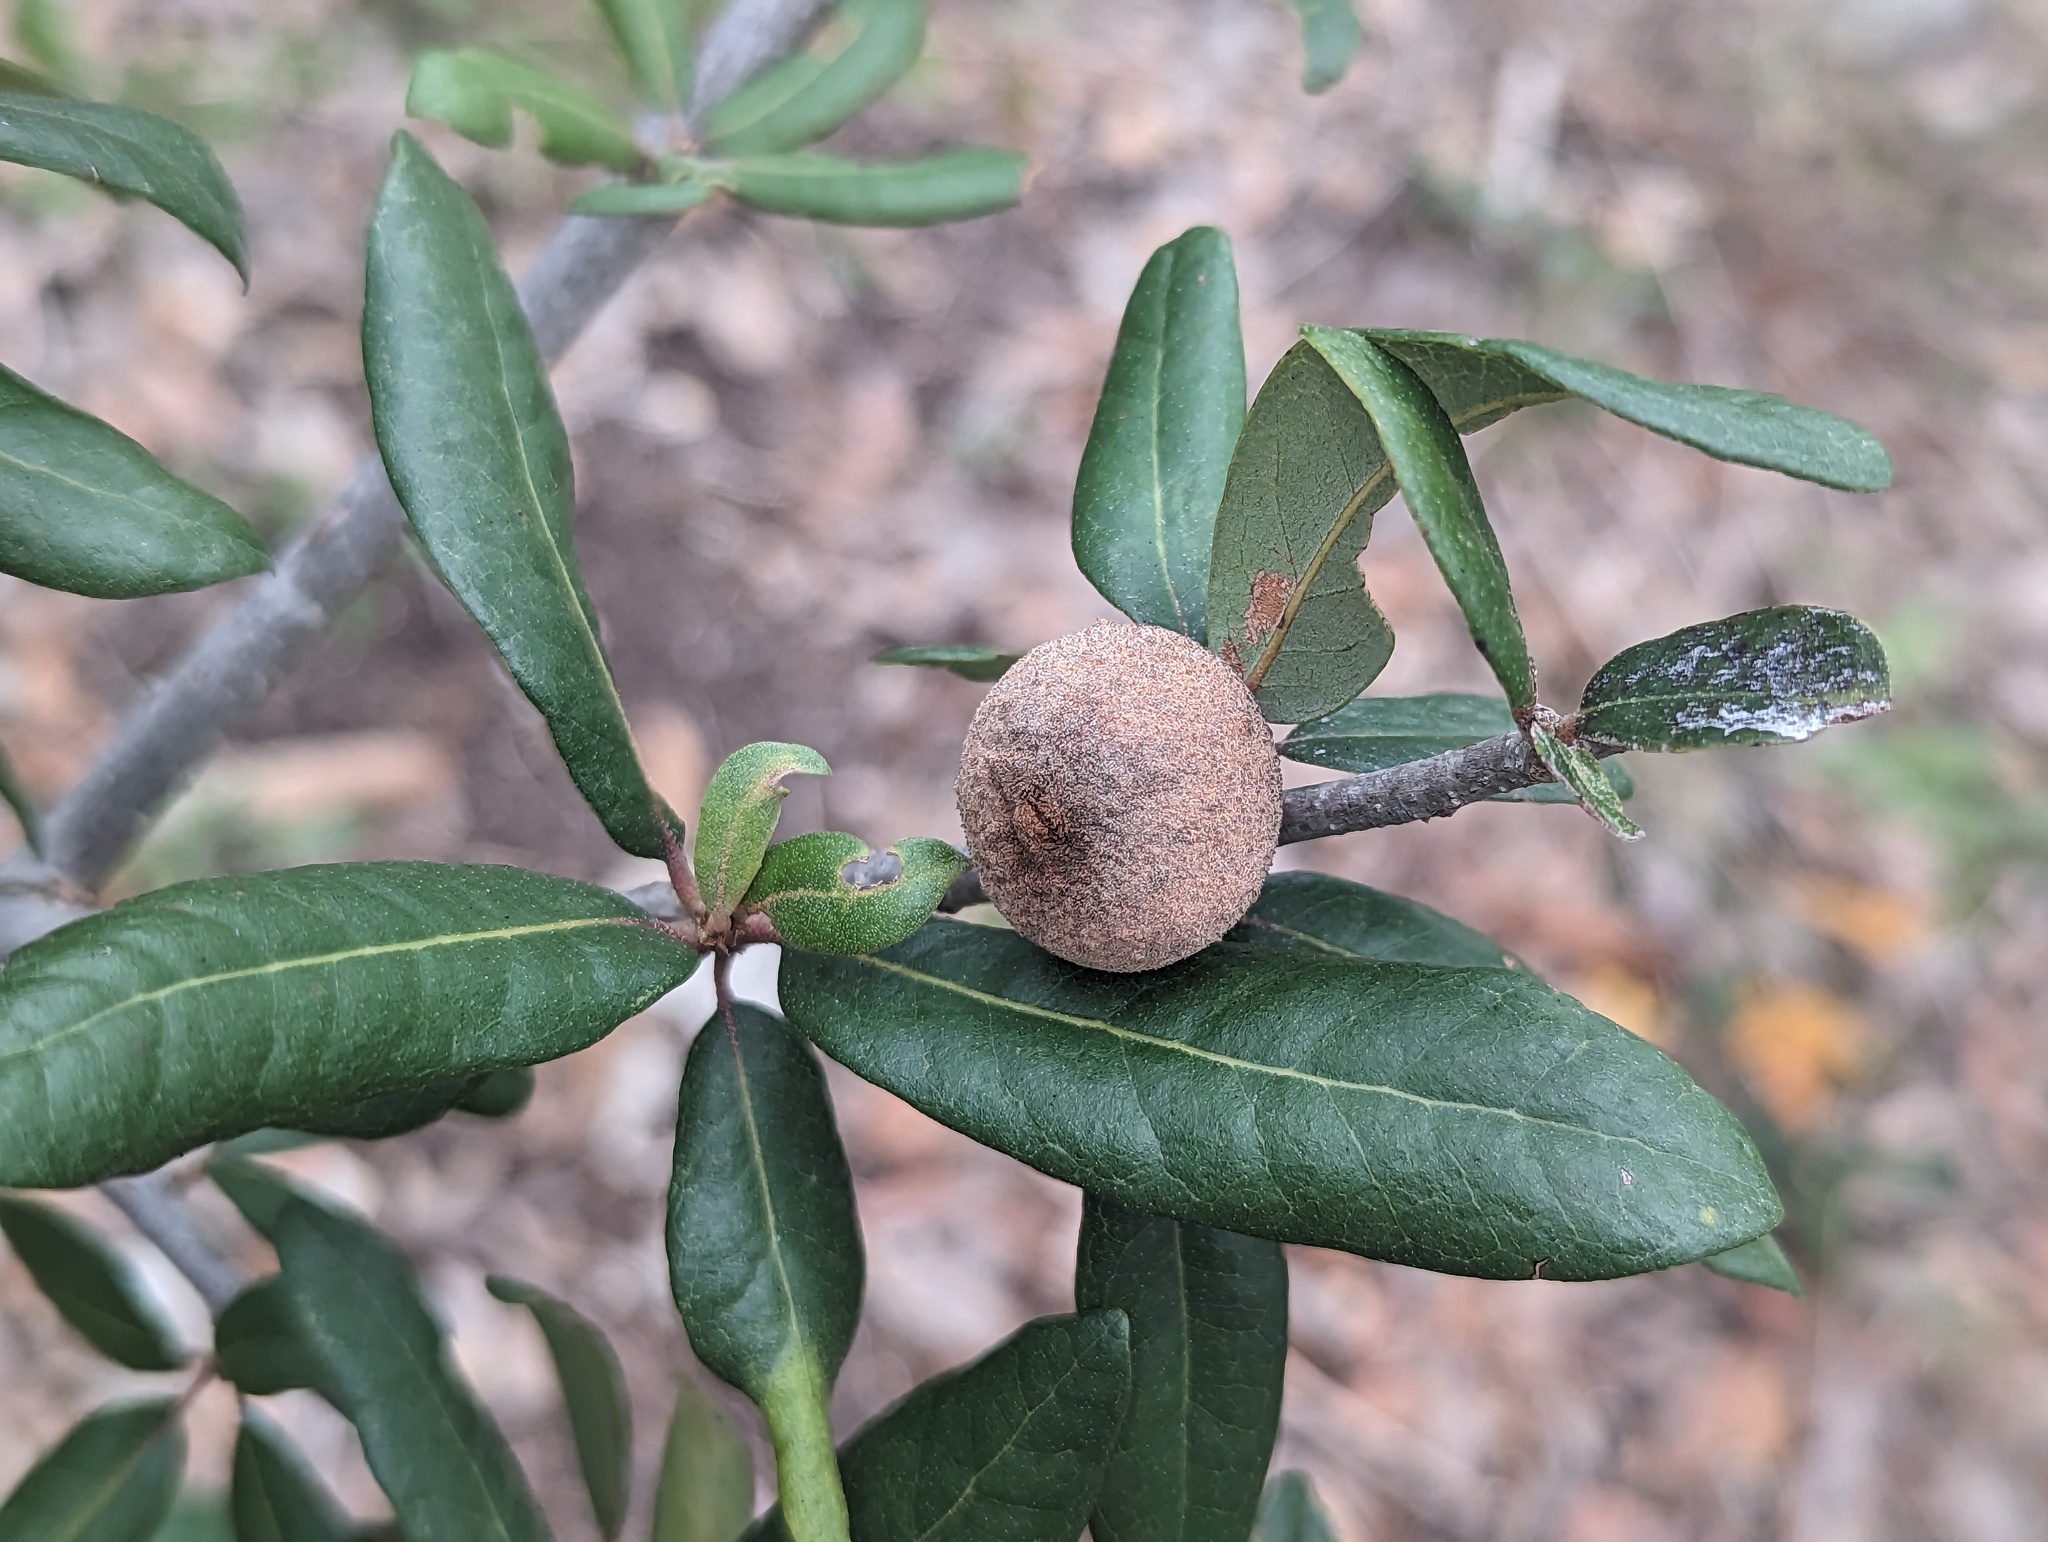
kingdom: Animalia
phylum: Arthropoda
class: Insecta
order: Hymenoptera
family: Cynipidae
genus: Disholcaspis
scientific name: Disholcaspis
